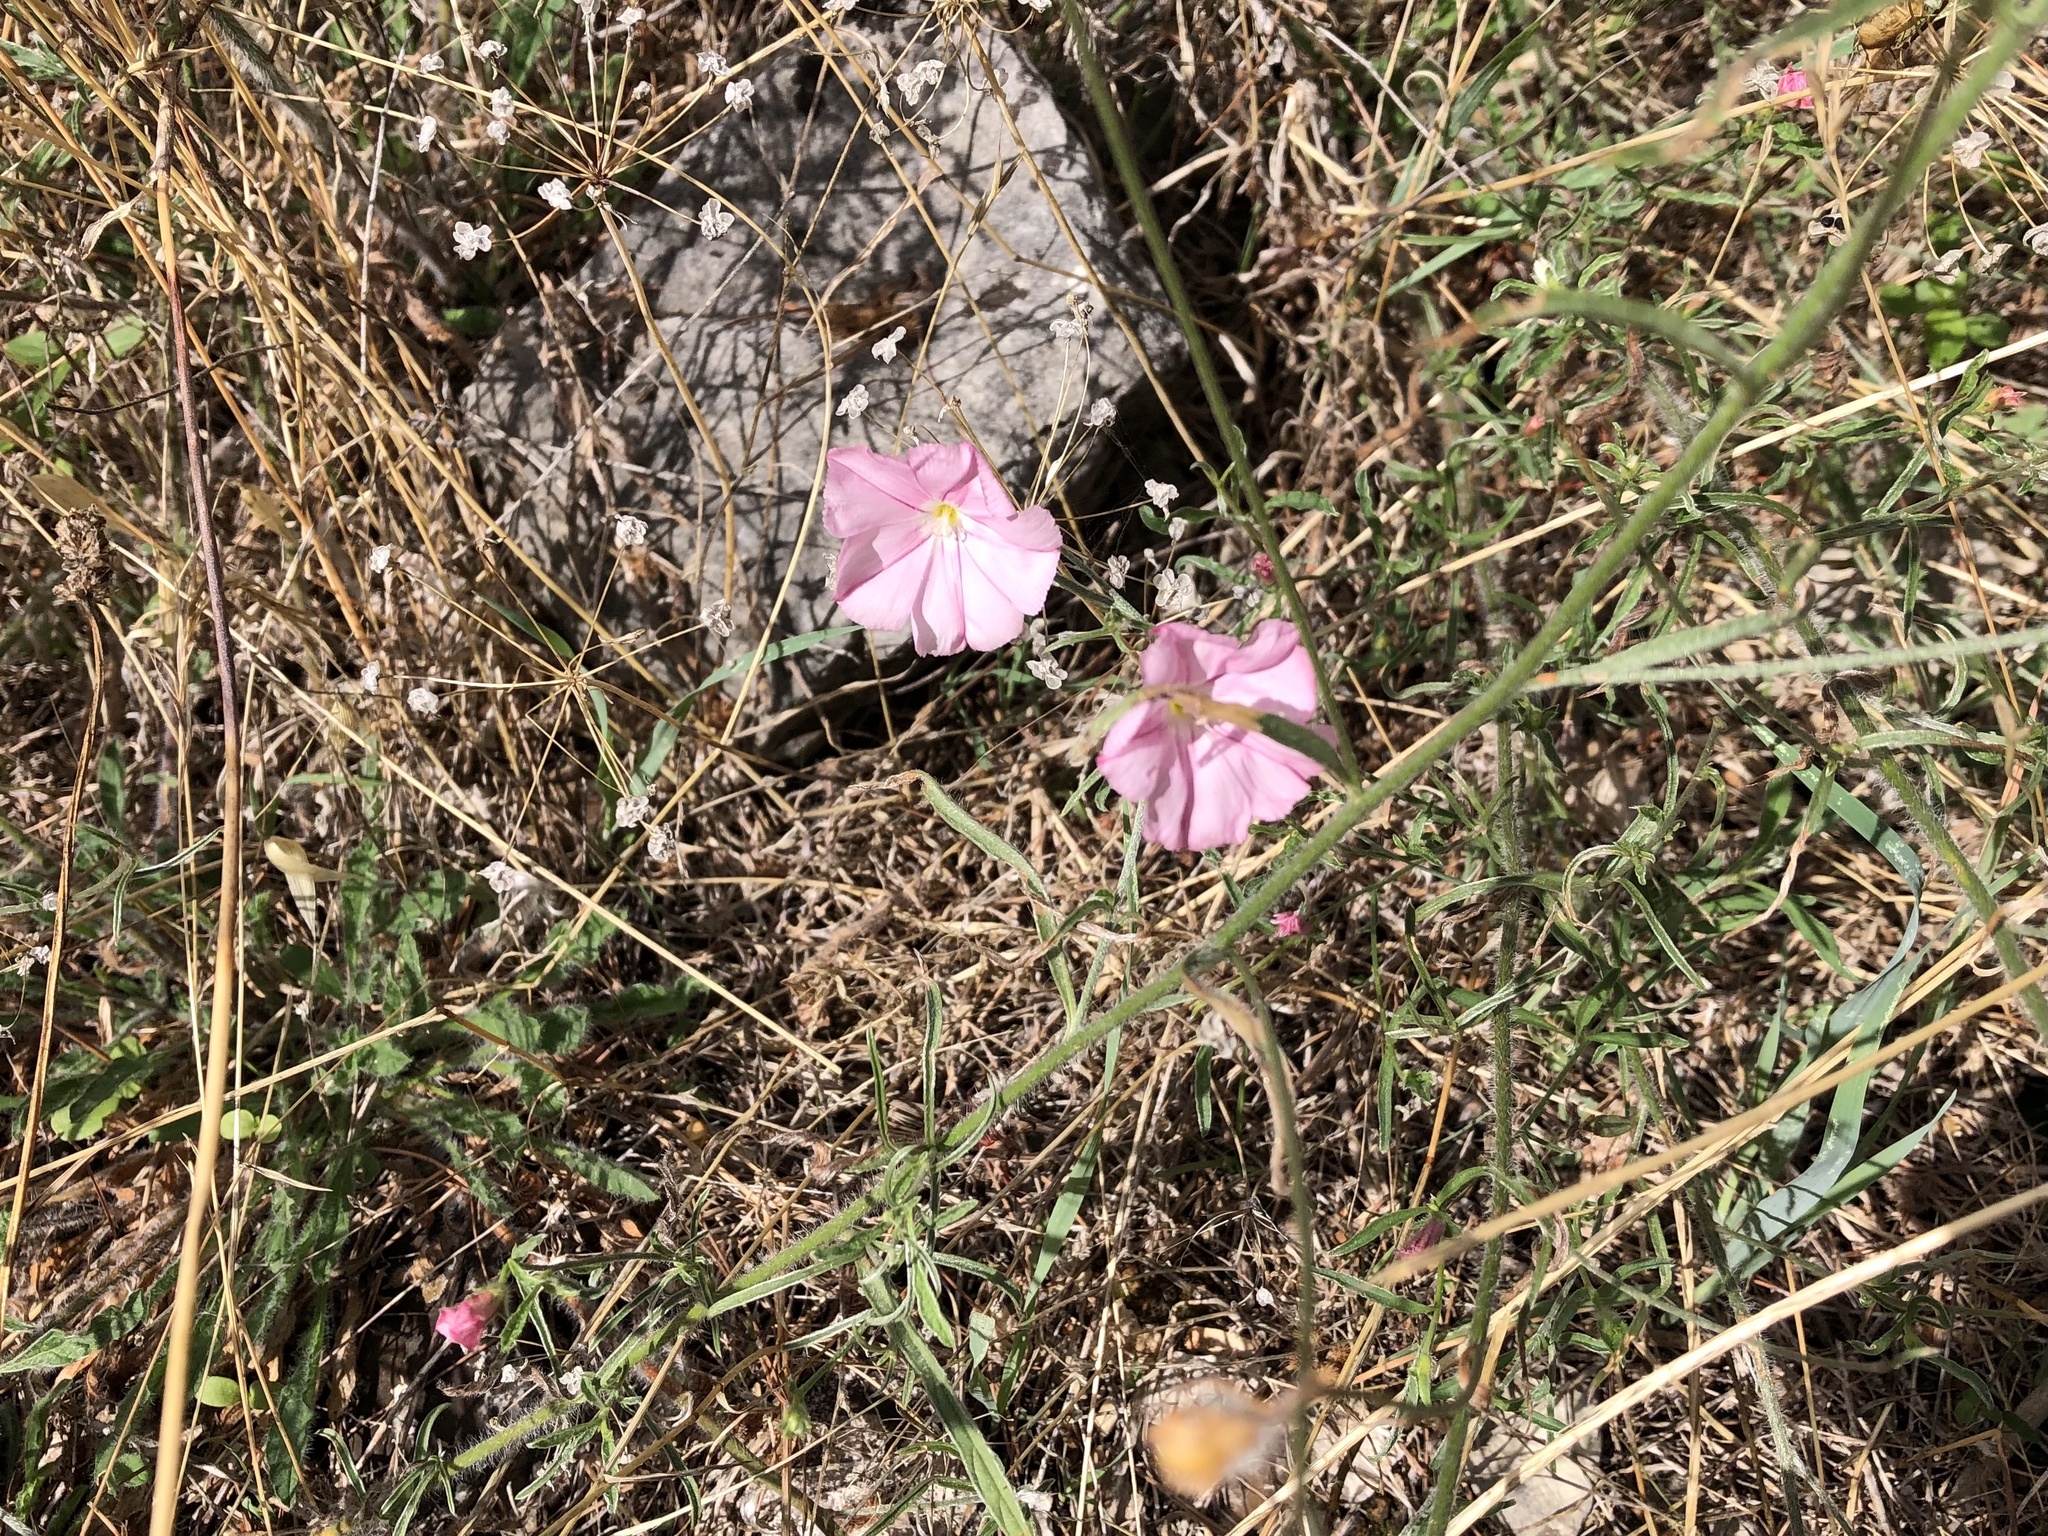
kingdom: Plantae
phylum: Tracheophyta
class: Magnoliopsida
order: Solanales
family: Convolvulaceae
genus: Convolvulus
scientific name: Convolvulus cantabrica
